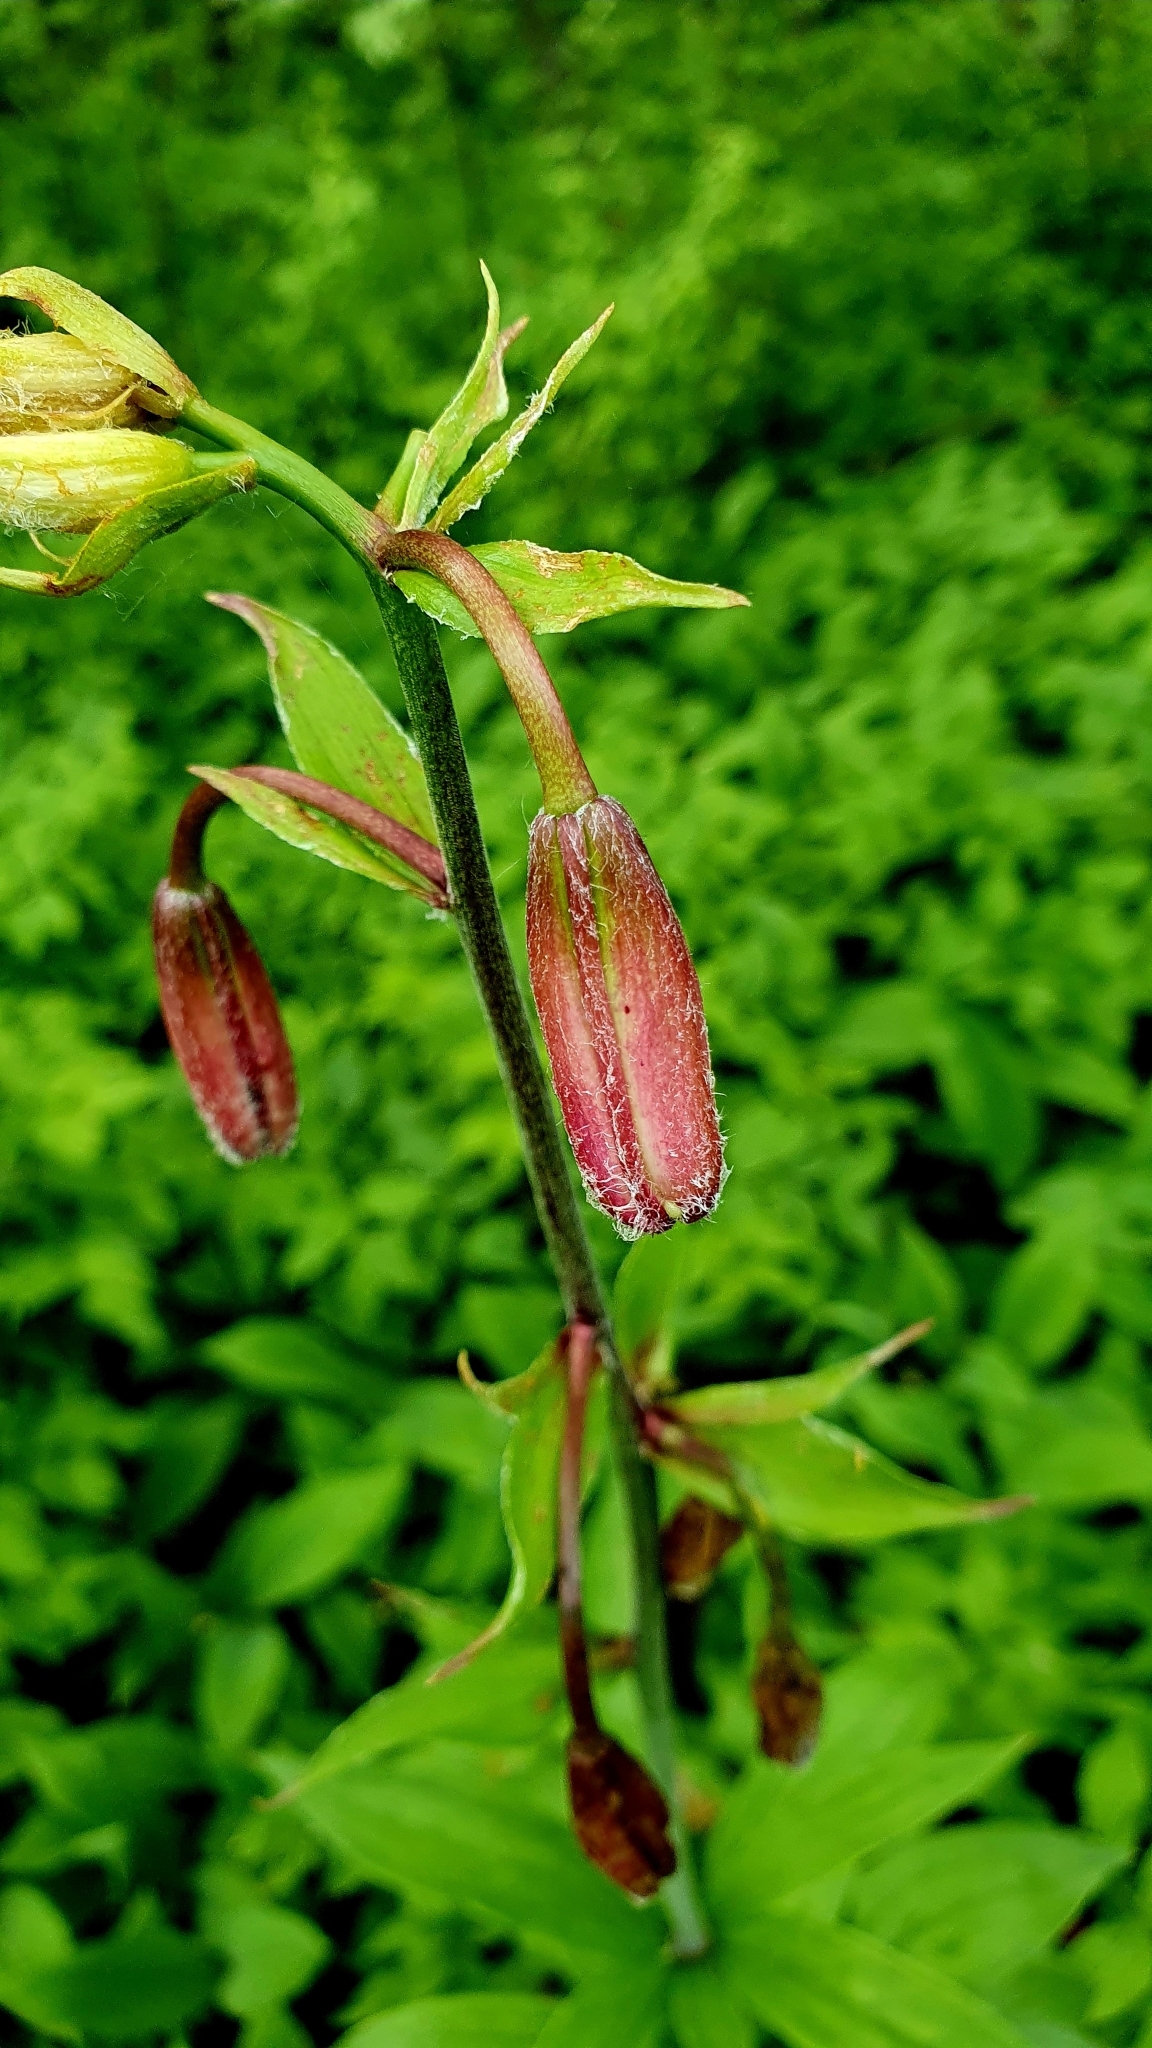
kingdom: Plantae
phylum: Tracheophyta
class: Liliopsida
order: Liliales
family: Liliaceae
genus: Lilium
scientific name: Lilium martagon
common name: Martagon lily
